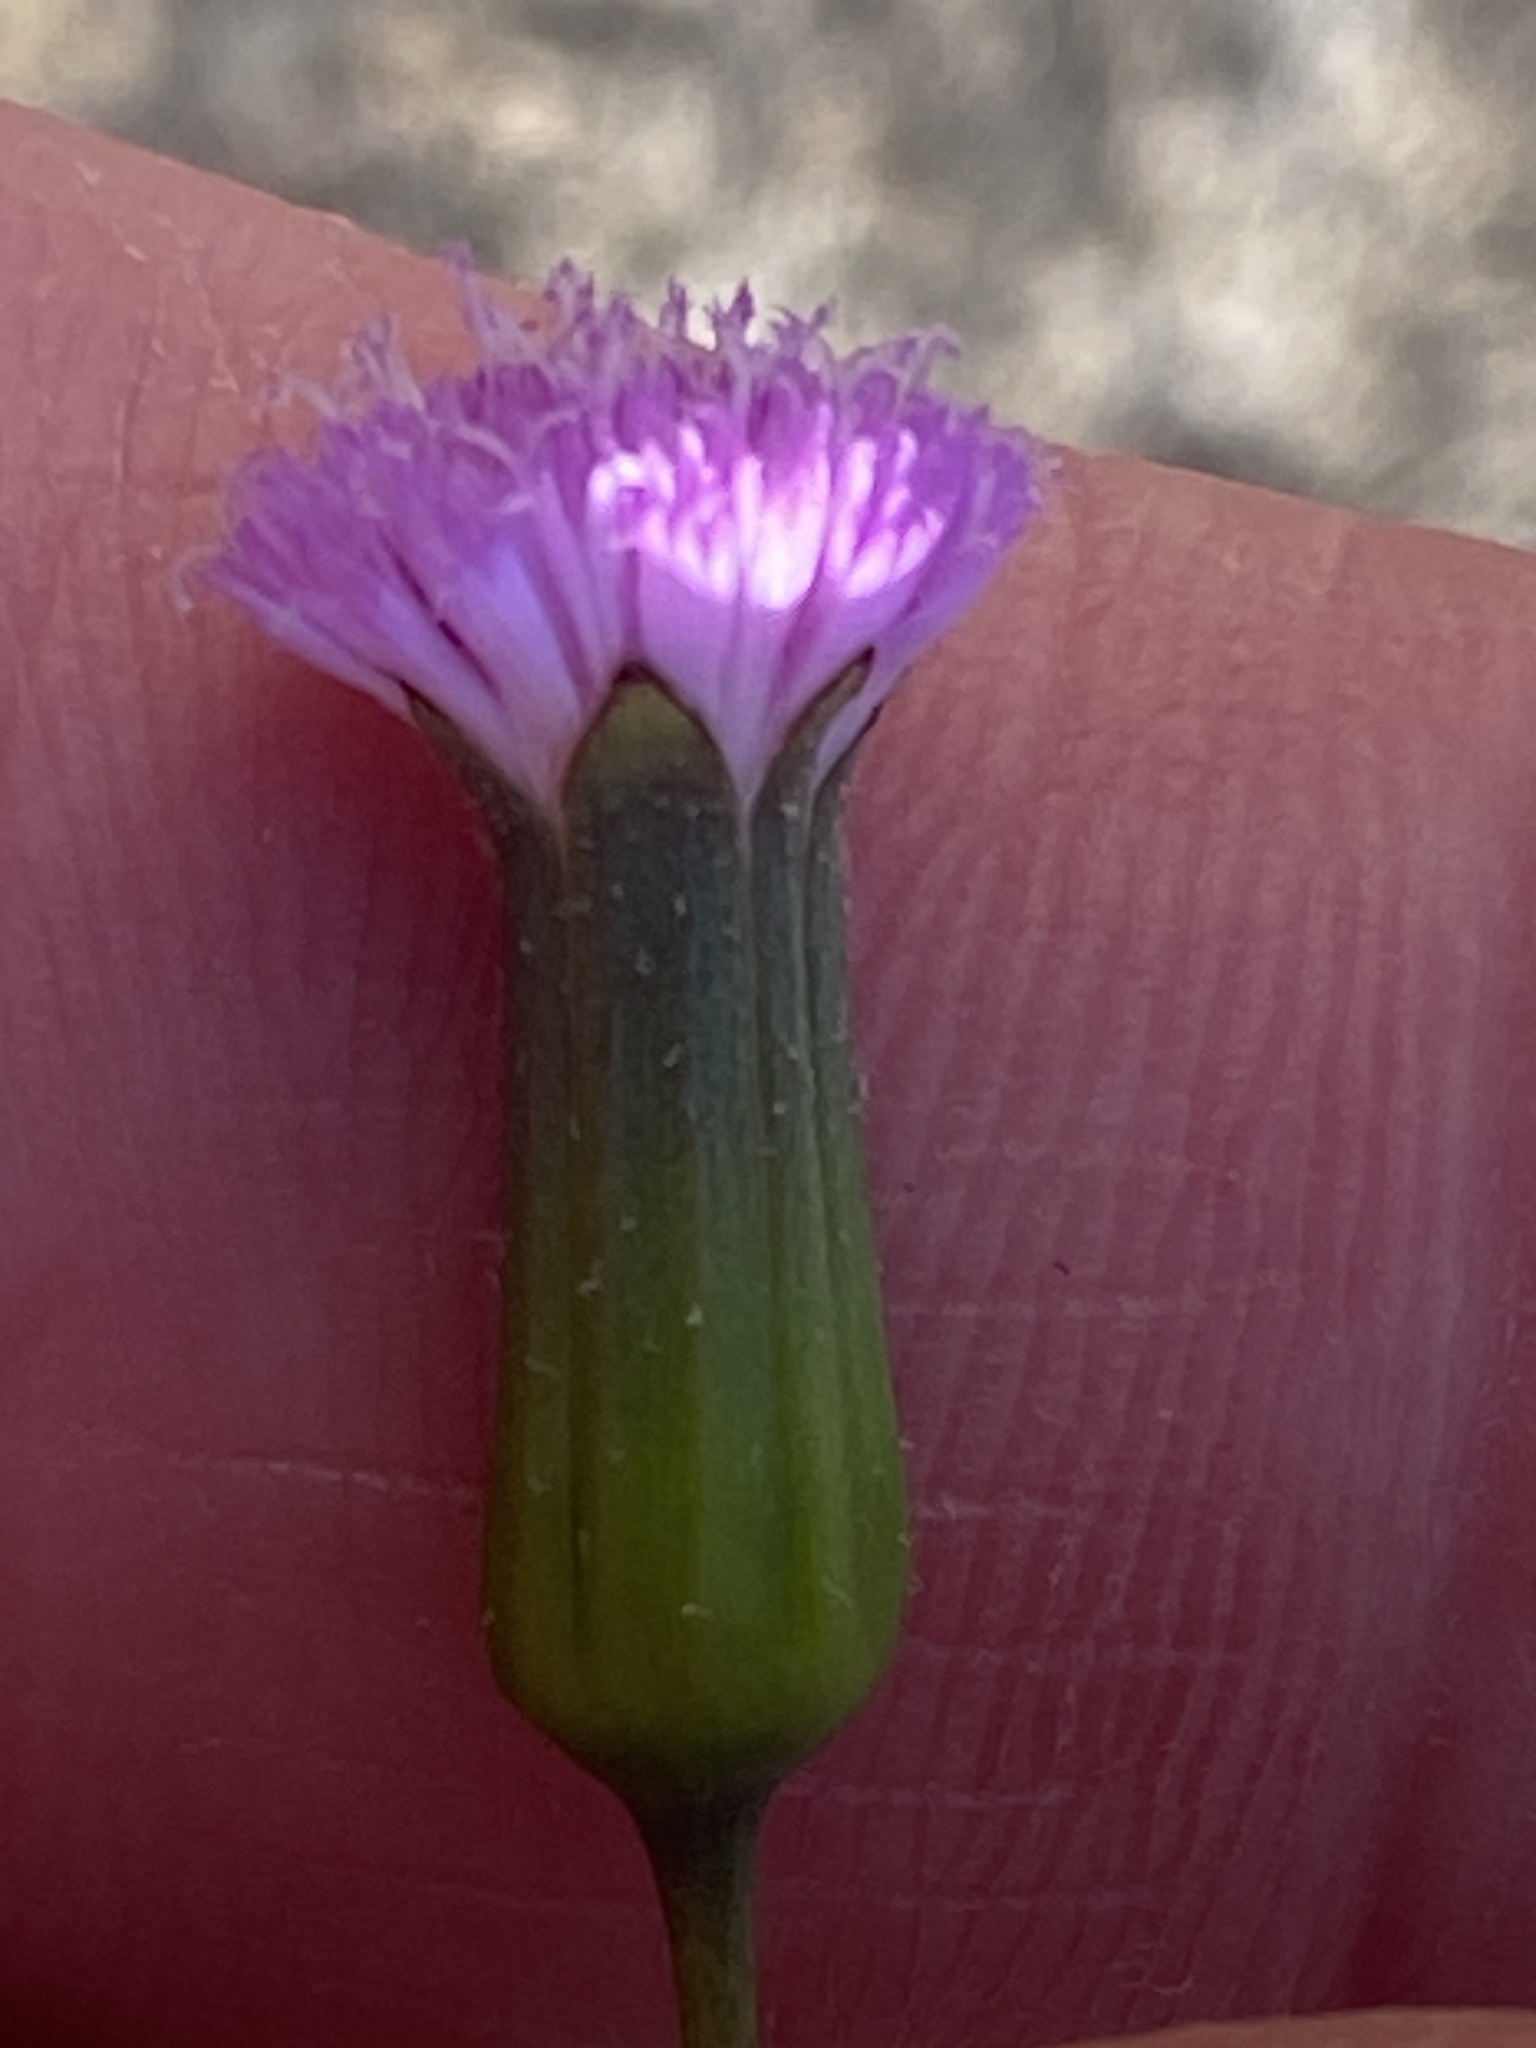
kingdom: Plantae
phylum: Tracheophyta
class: Magnoliopsida
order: Asterales
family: Asteraceae
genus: Emilia
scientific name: Emilia javanica
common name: Tassel-flower
